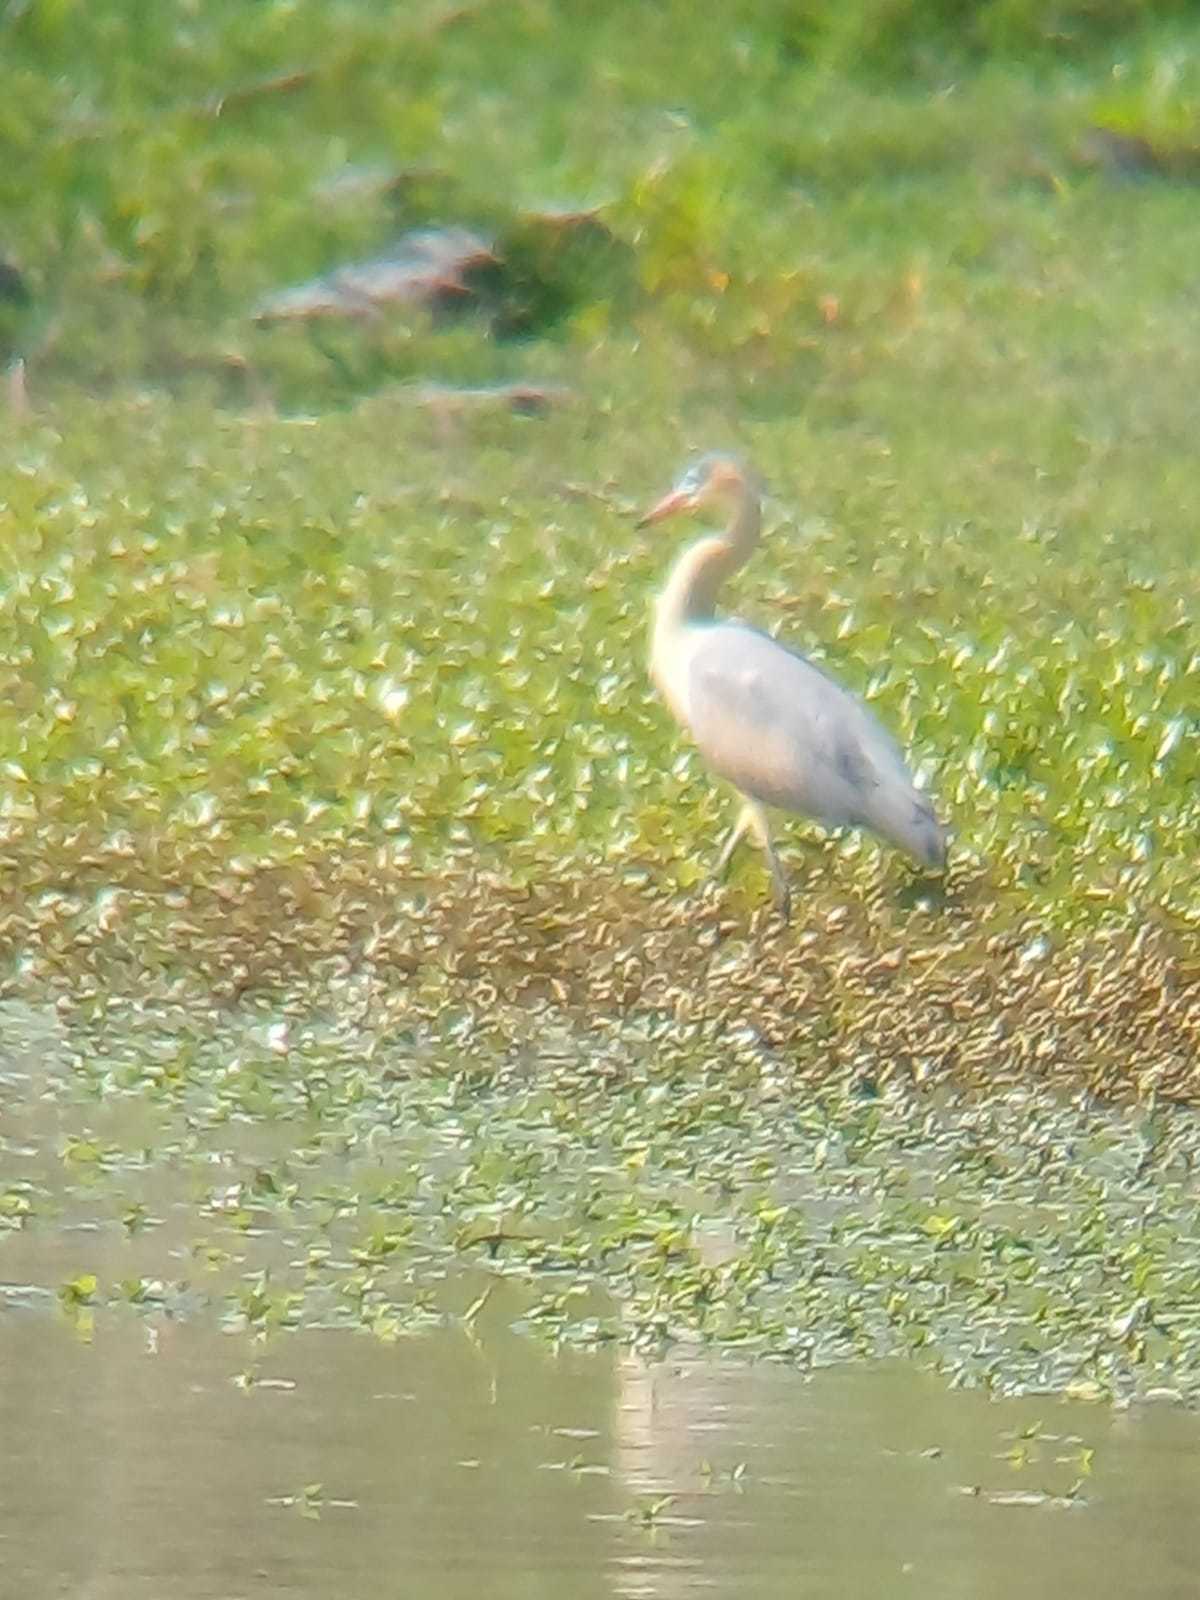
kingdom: Animalia
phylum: Chordata
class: Aves
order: Pelecaniformes
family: Ardeidae
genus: Syrigma
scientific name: Syrigma sibilatrix
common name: Whistling heron
